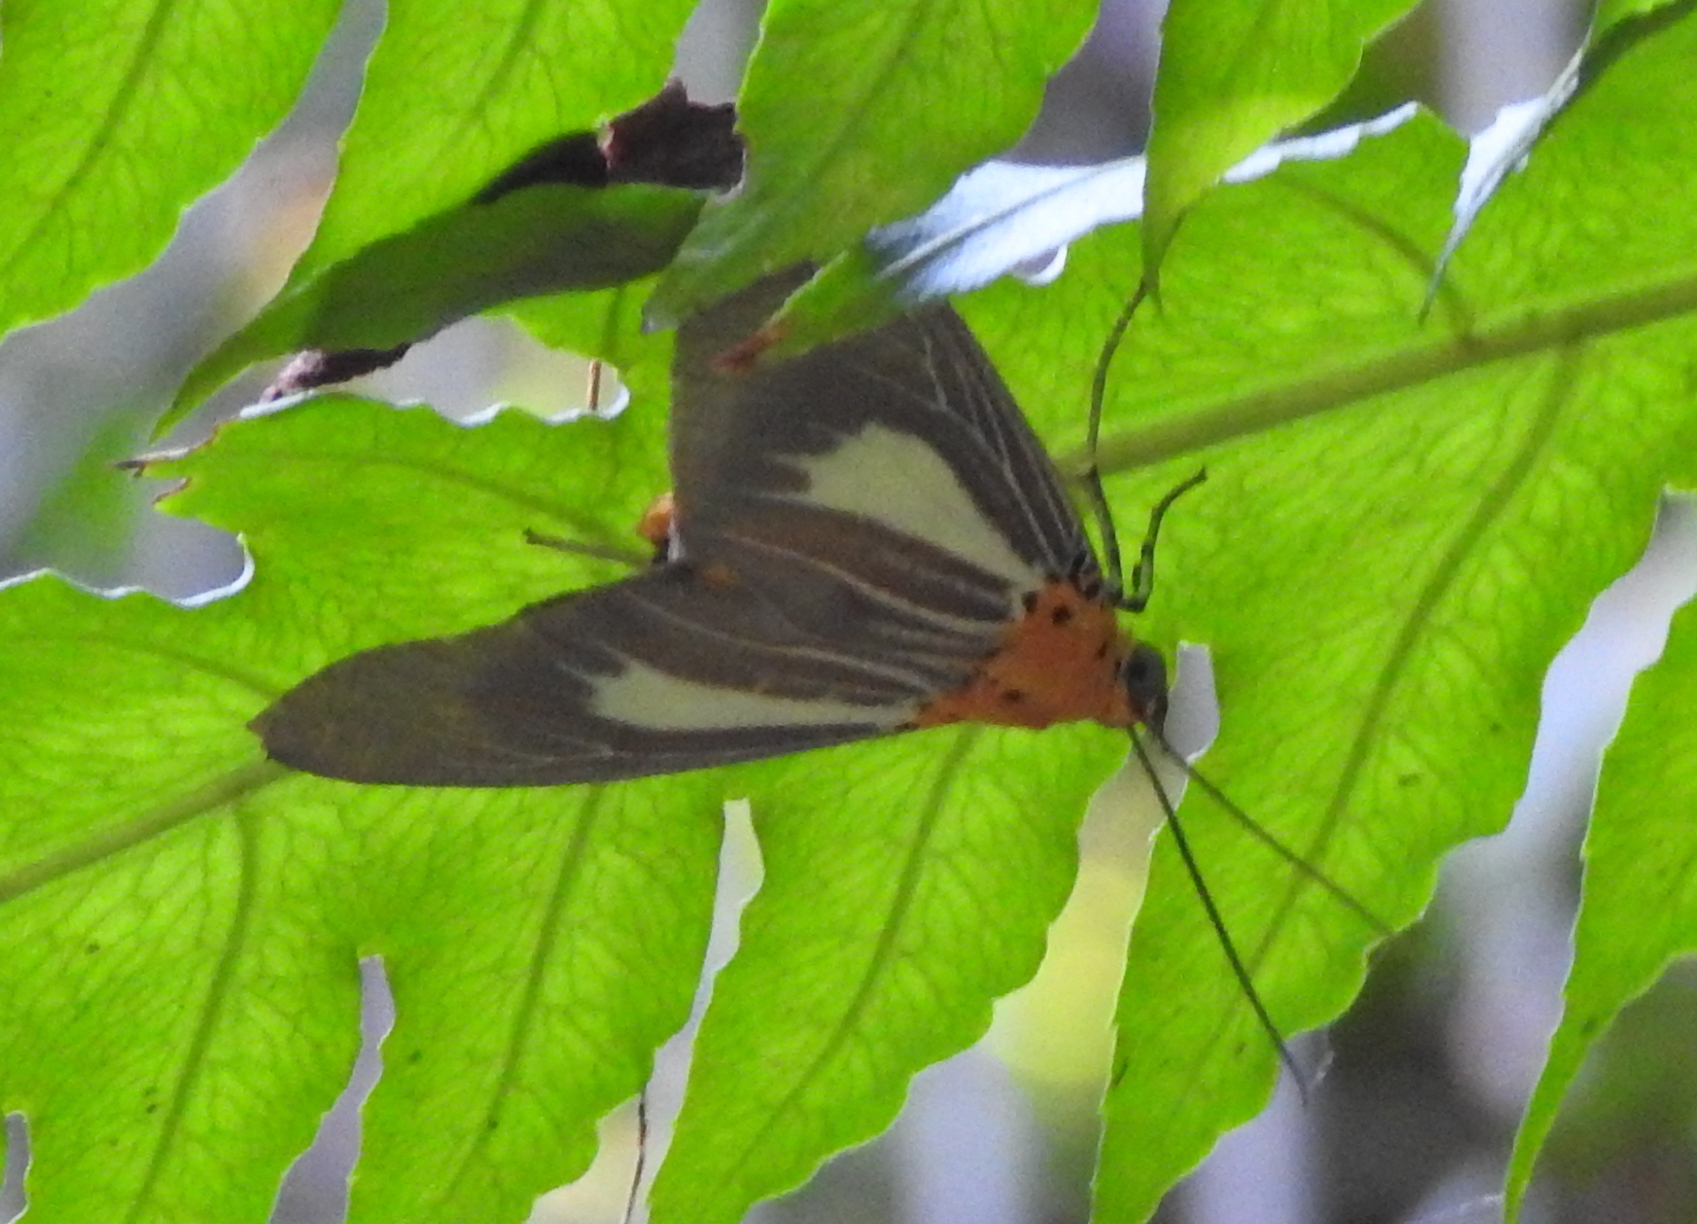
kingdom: Animalia
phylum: Arthropoda
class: Insecta
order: Lepidoptera
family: Erebidae
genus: Asota
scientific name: Asota subsimilis
